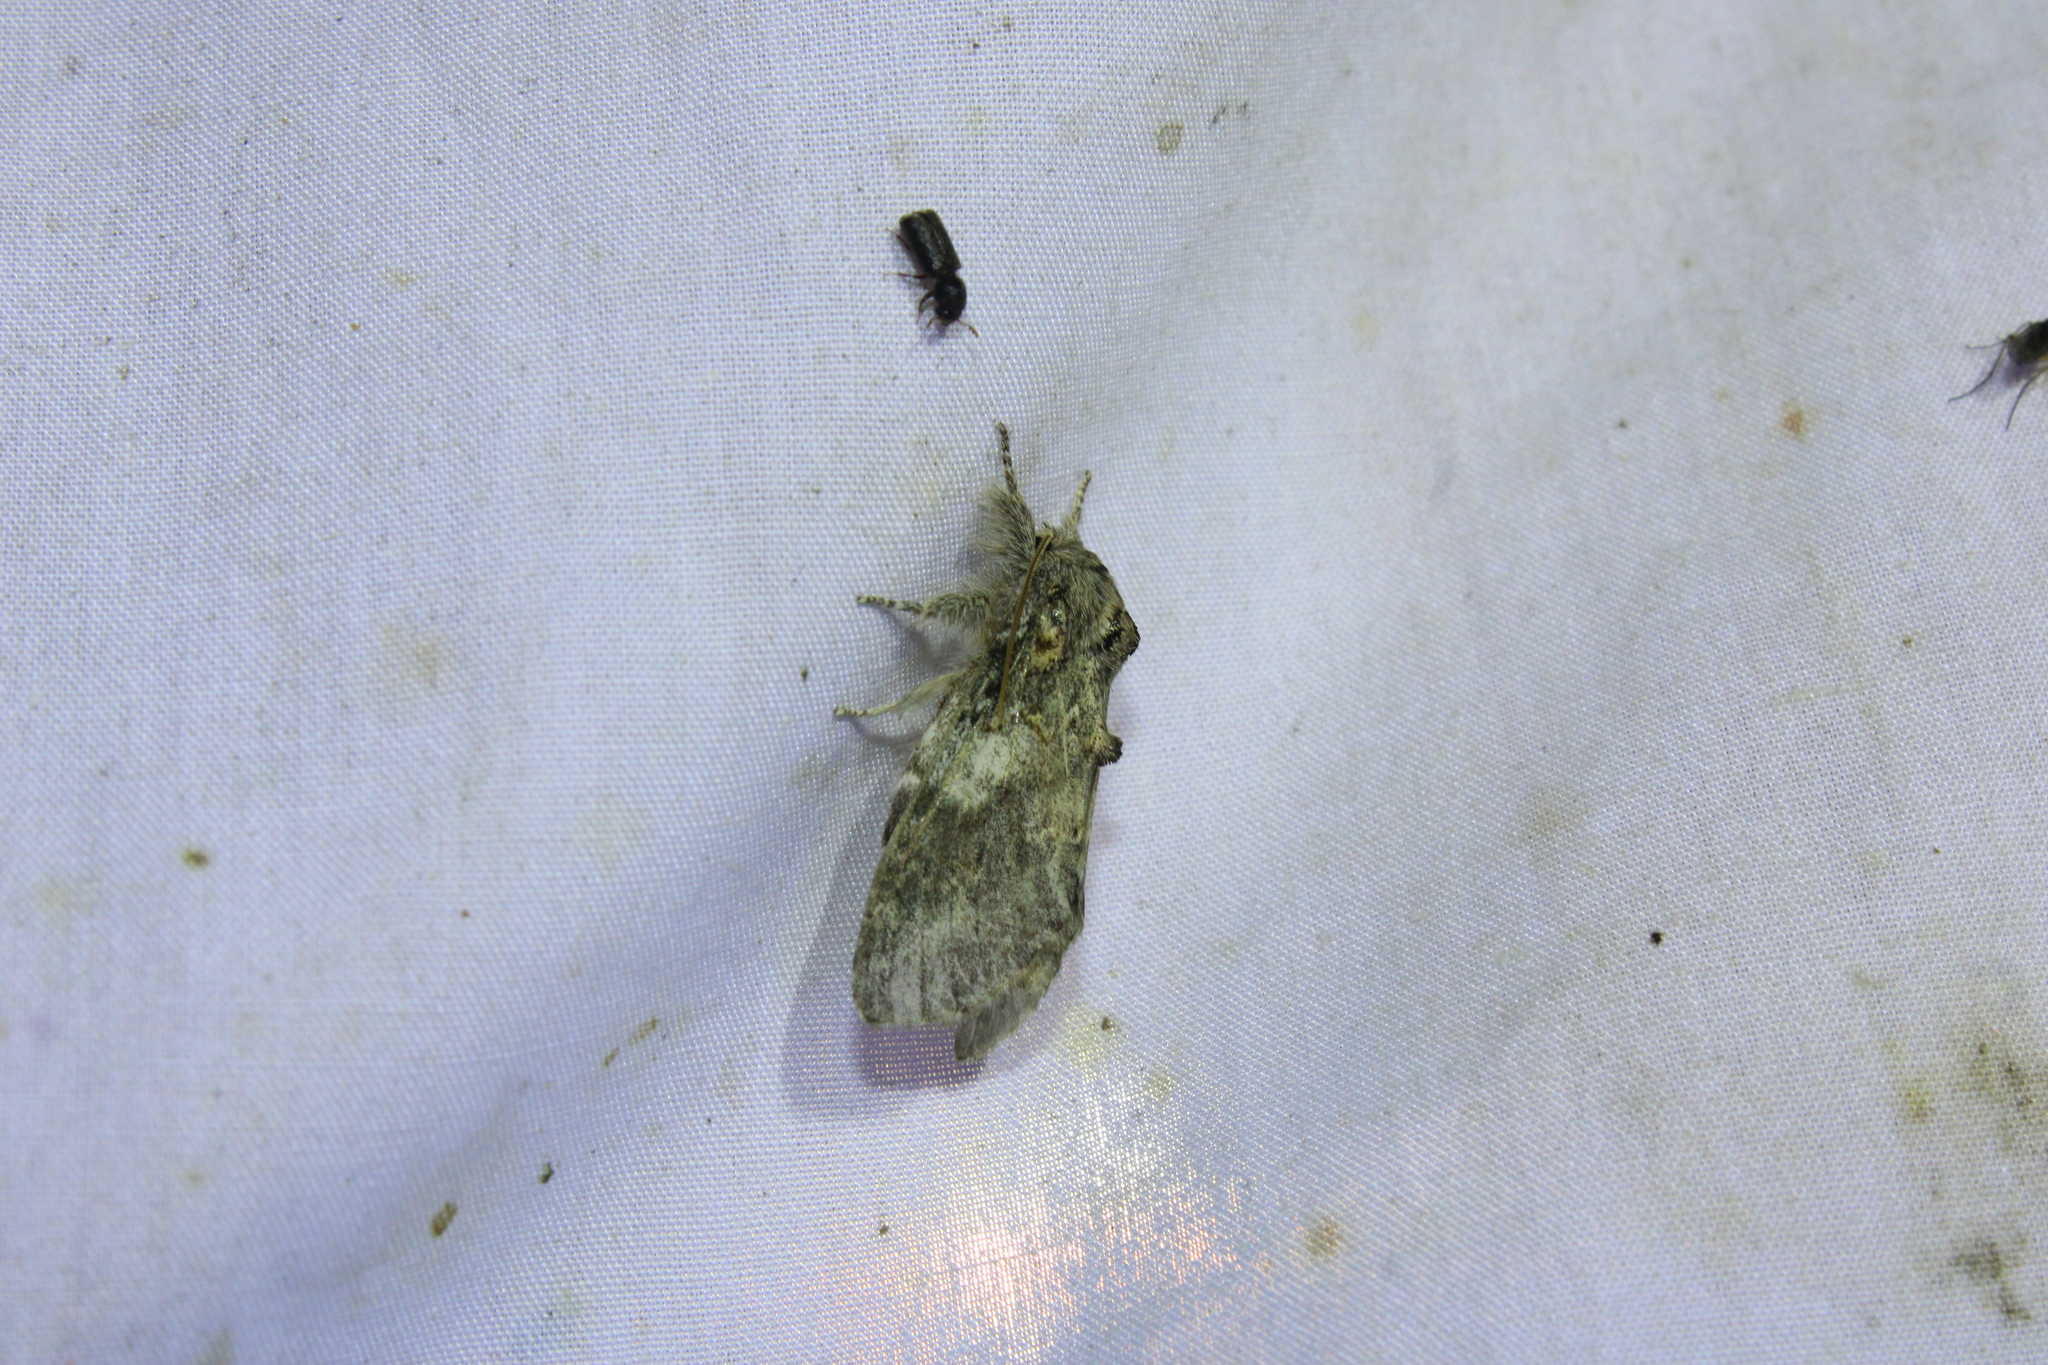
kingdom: Animalia
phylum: Arthropoda
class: Insecta
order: Lepidoptera
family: Notodontidae
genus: Peridea
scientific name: Peridea angulosa
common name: Angulose prominent
